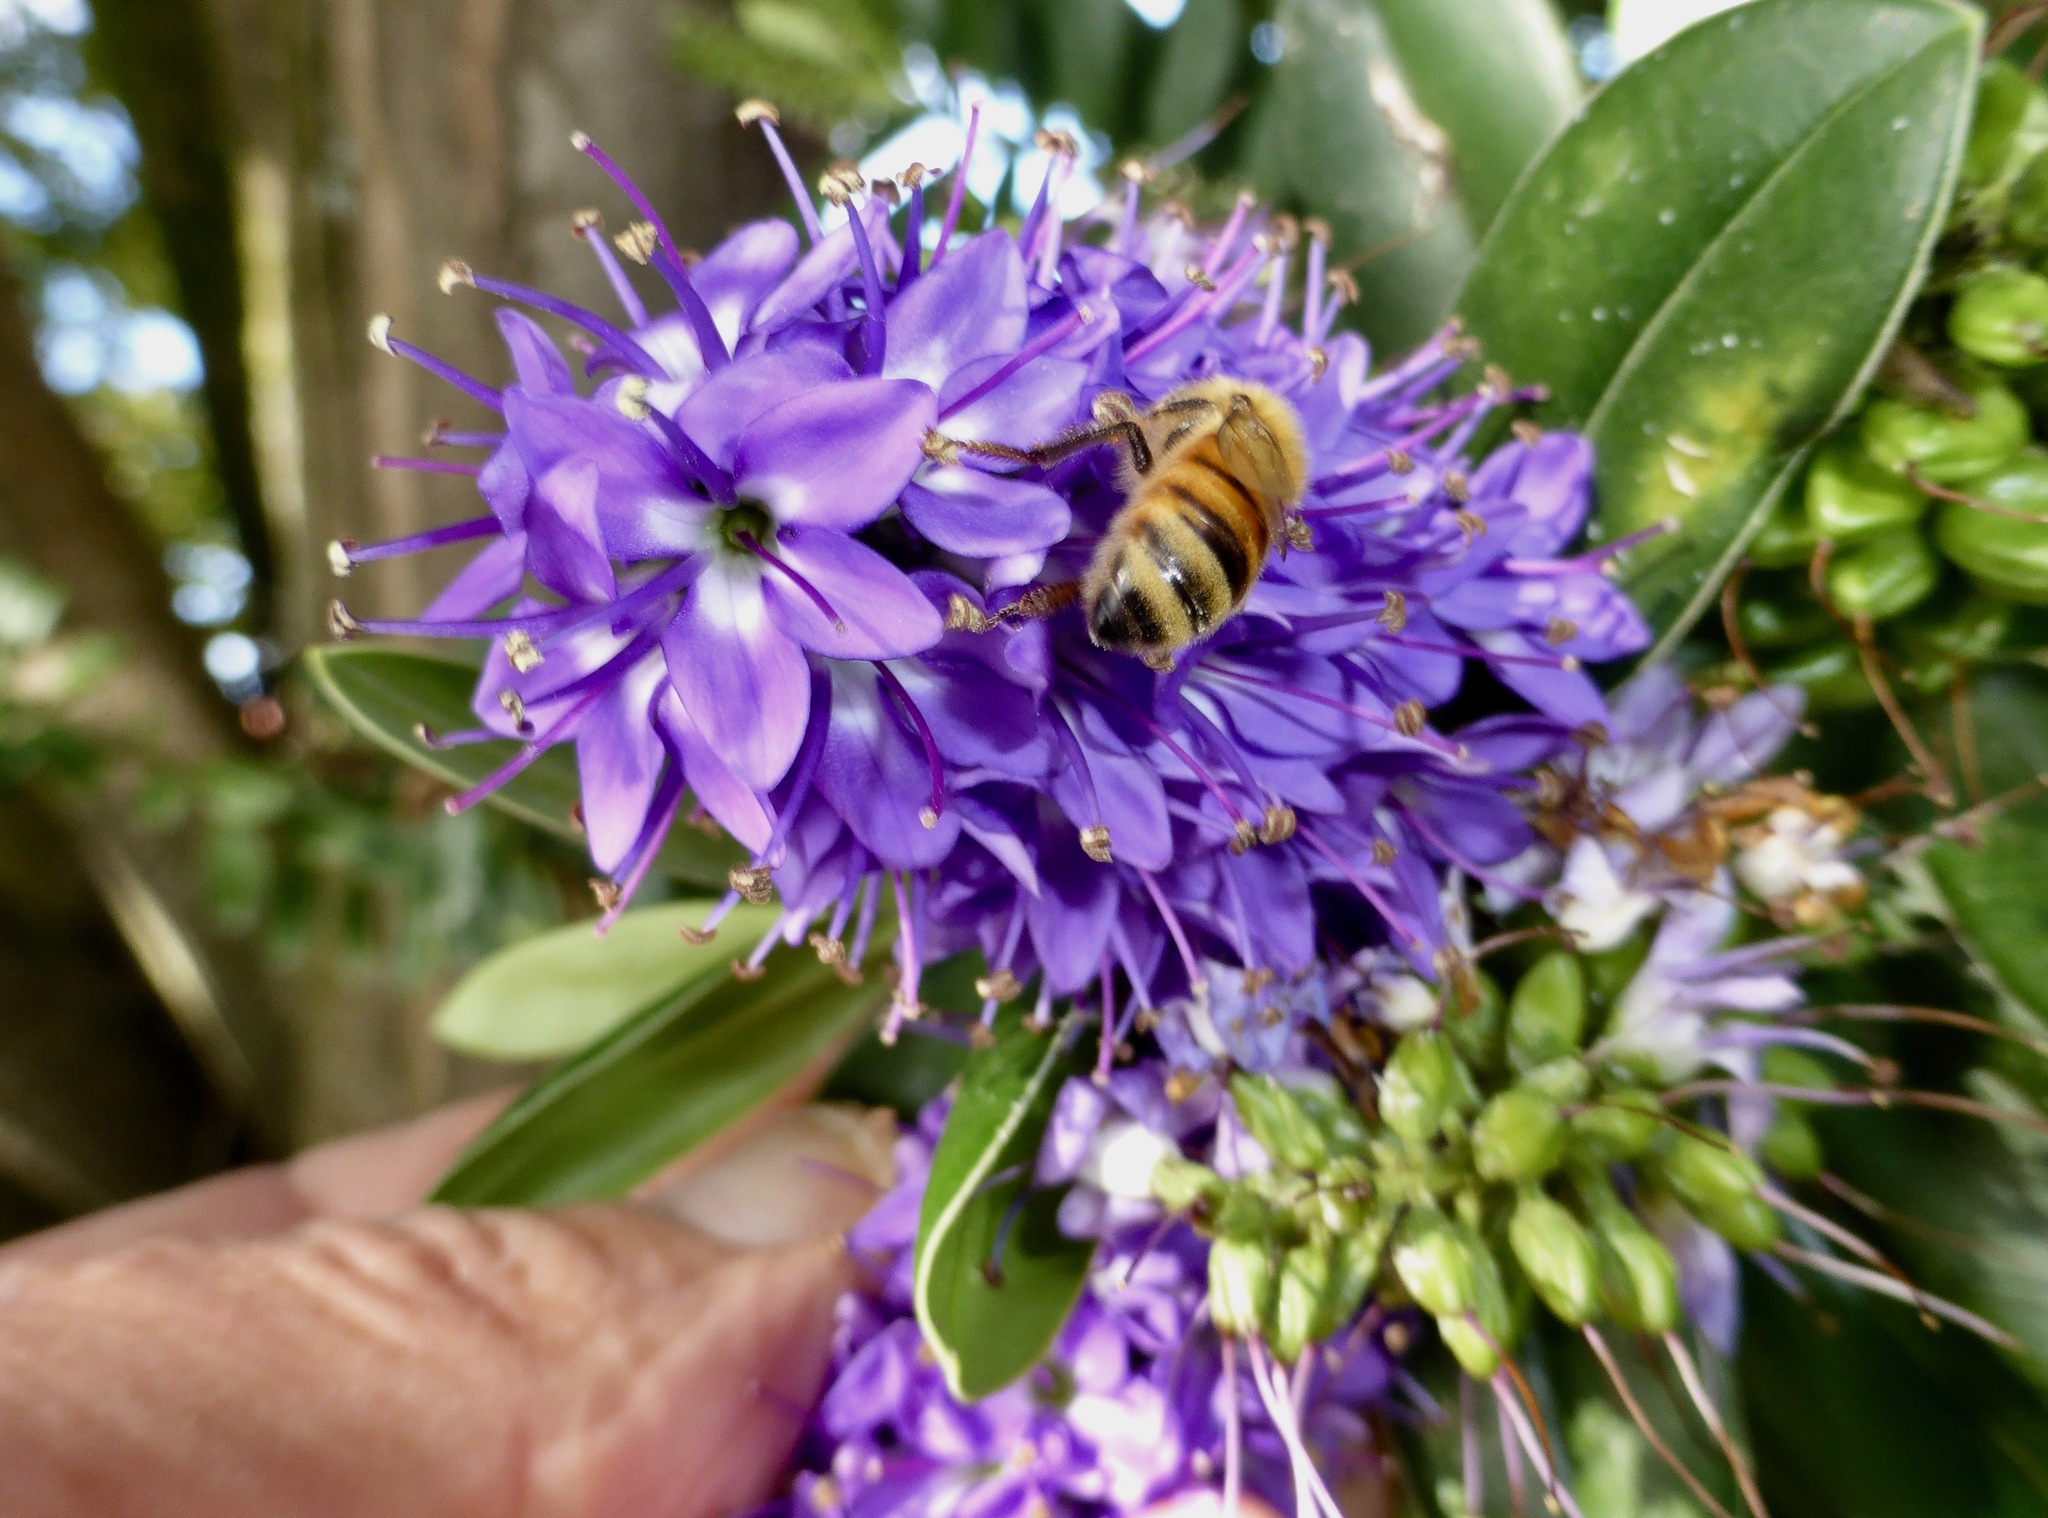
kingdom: Animalia
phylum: Arthropoda
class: Insecta
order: Hymenoptera
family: Apidae
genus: Apis
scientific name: Apis mellifera
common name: Honey bee
